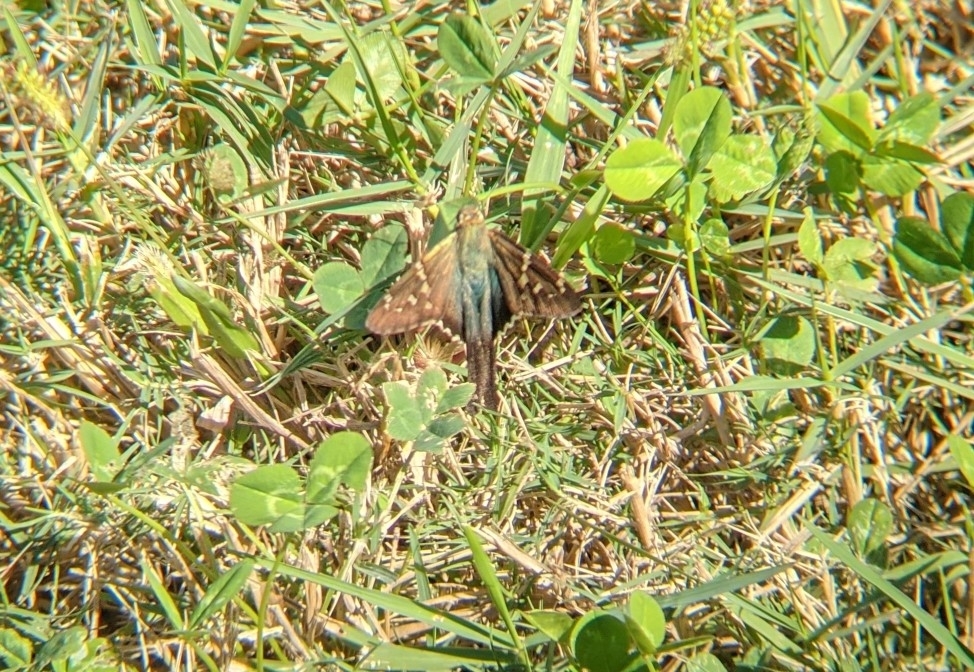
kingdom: Animalia
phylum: Arthropoda
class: Insecta
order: Lepidoptera
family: Hesperiidae
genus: Urbanus
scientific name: Urbanus proteus
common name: Long-tailed skipper
